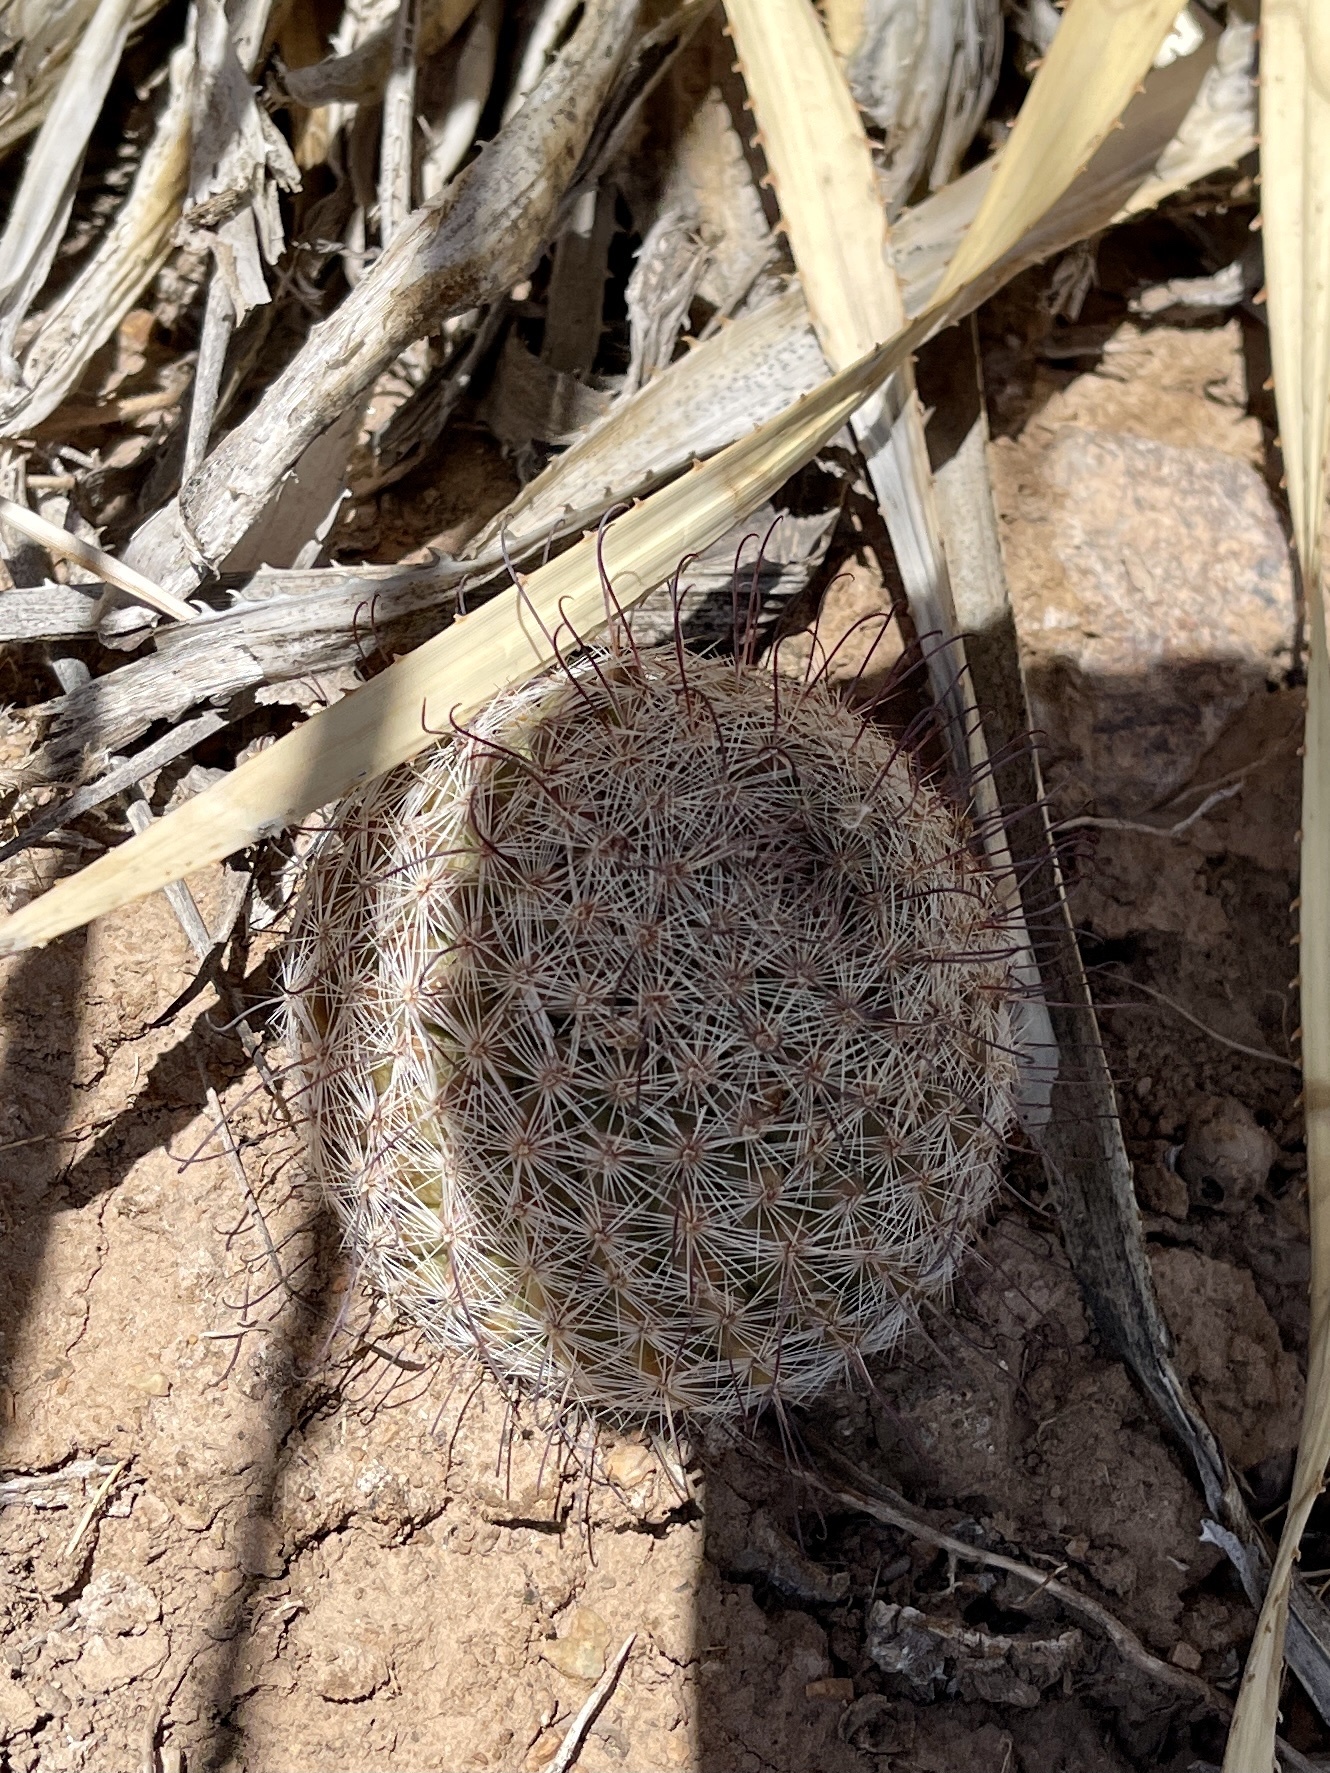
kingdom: Plantae
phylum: Tracheophyta
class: Magnoliopsida
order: Caryophyllales
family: Cactaceae
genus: Cochemiea
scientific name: Cochemiea grahamii
